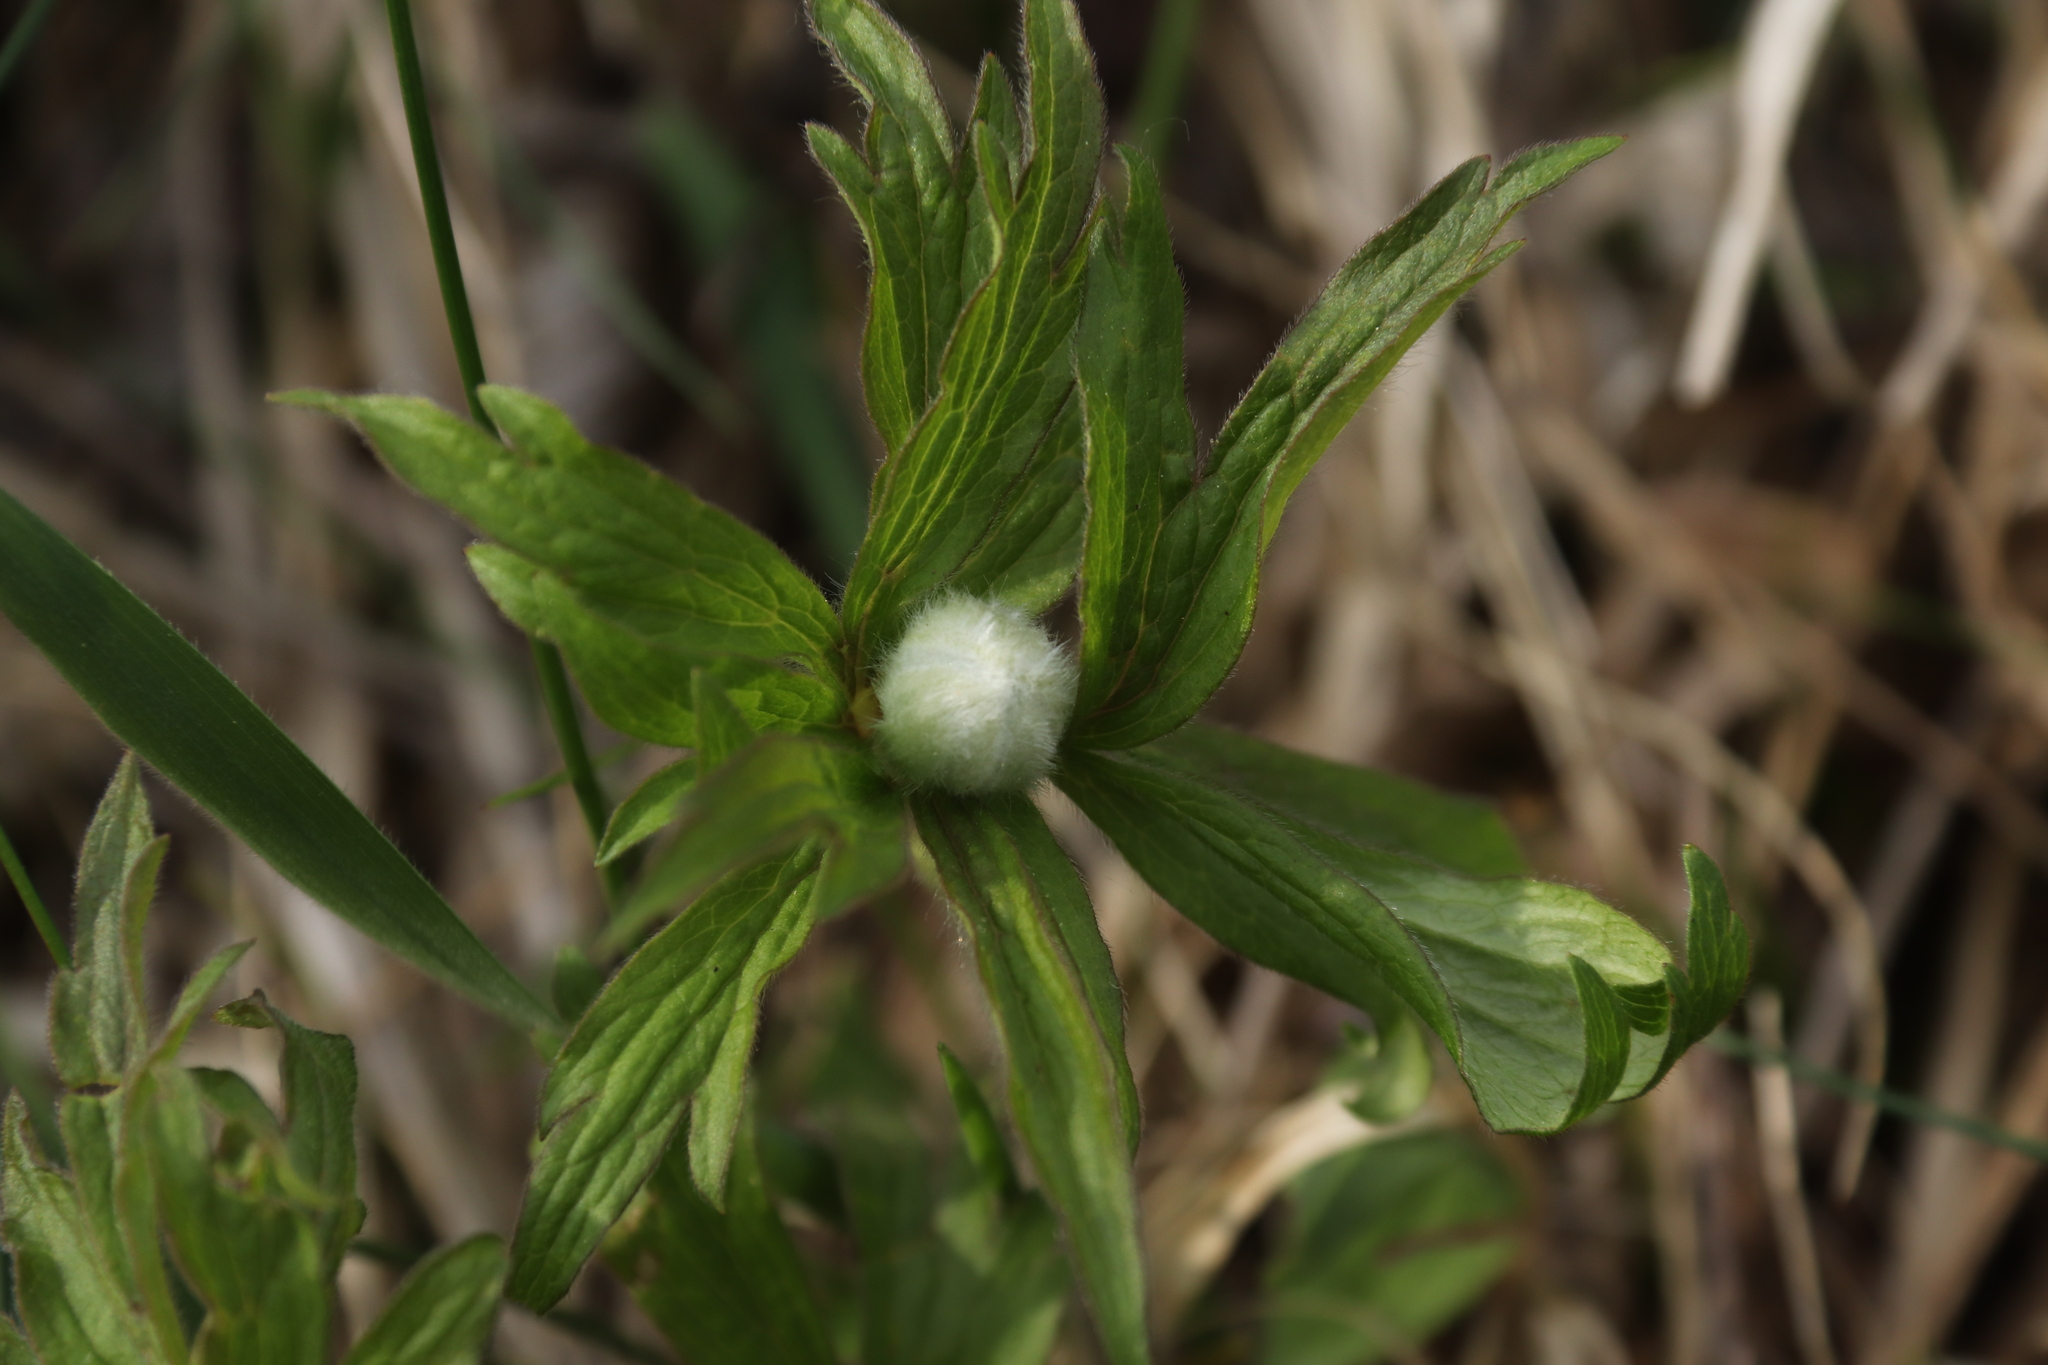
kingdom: Plantae
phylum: Tracheophyta
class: Magnoliopsida
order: Ranunculales
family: Ranunculaceae
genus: Anemone
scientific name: Anemone sylvestris
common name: Snowdrop anemone
